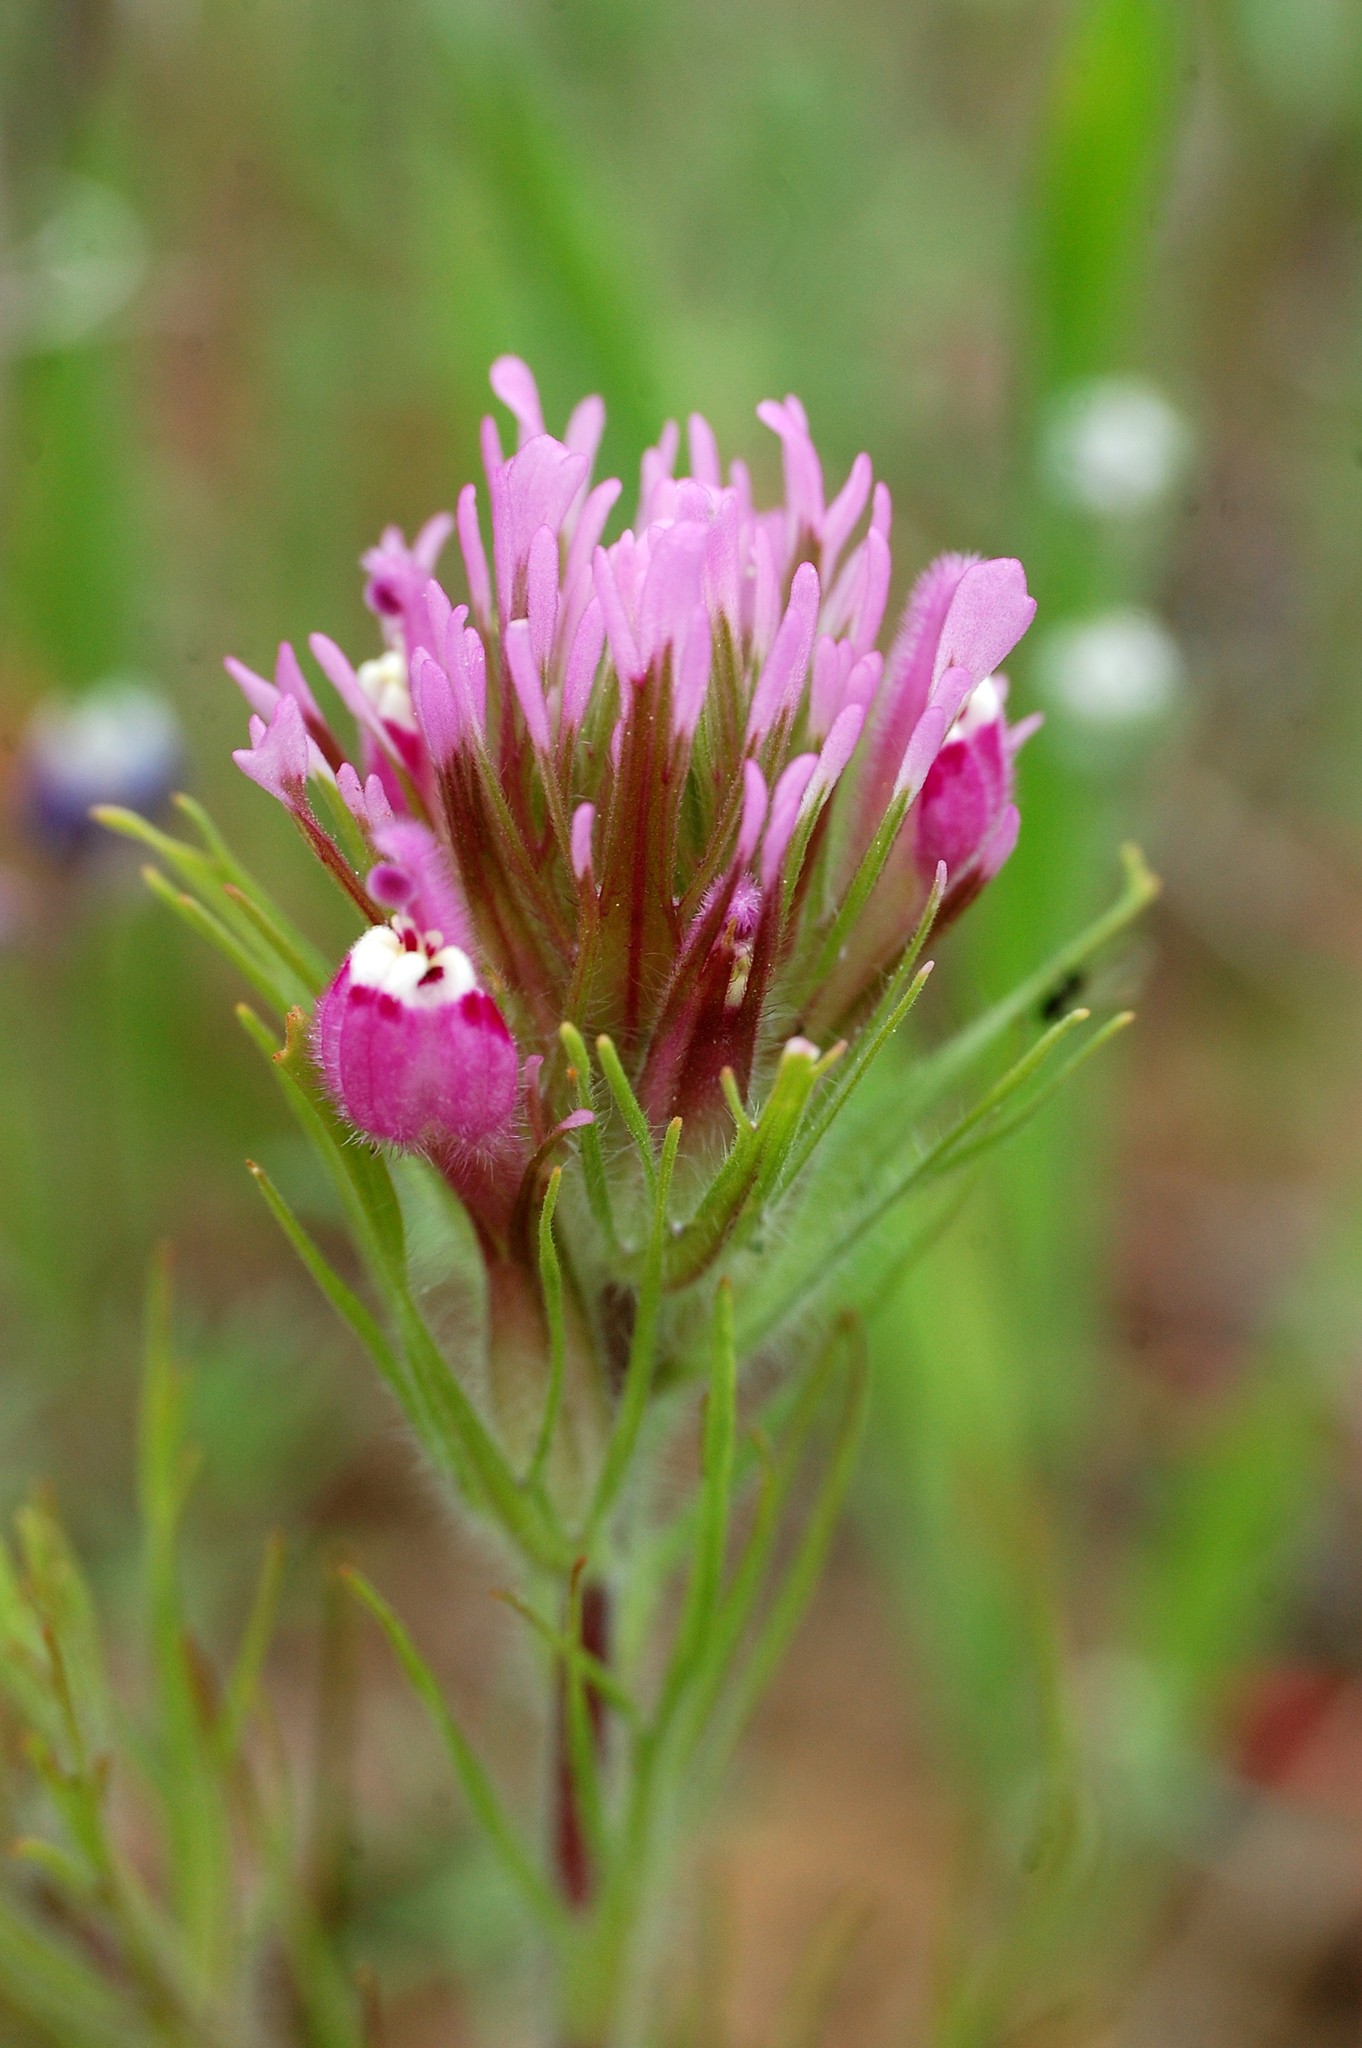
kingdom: Plantae
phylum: Tracheophyta
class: Magnoliopsida
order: Lamiales
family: Orobanchaceae
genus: Castilleja
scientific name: Castilleja exserta
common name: Purple owl-clover
